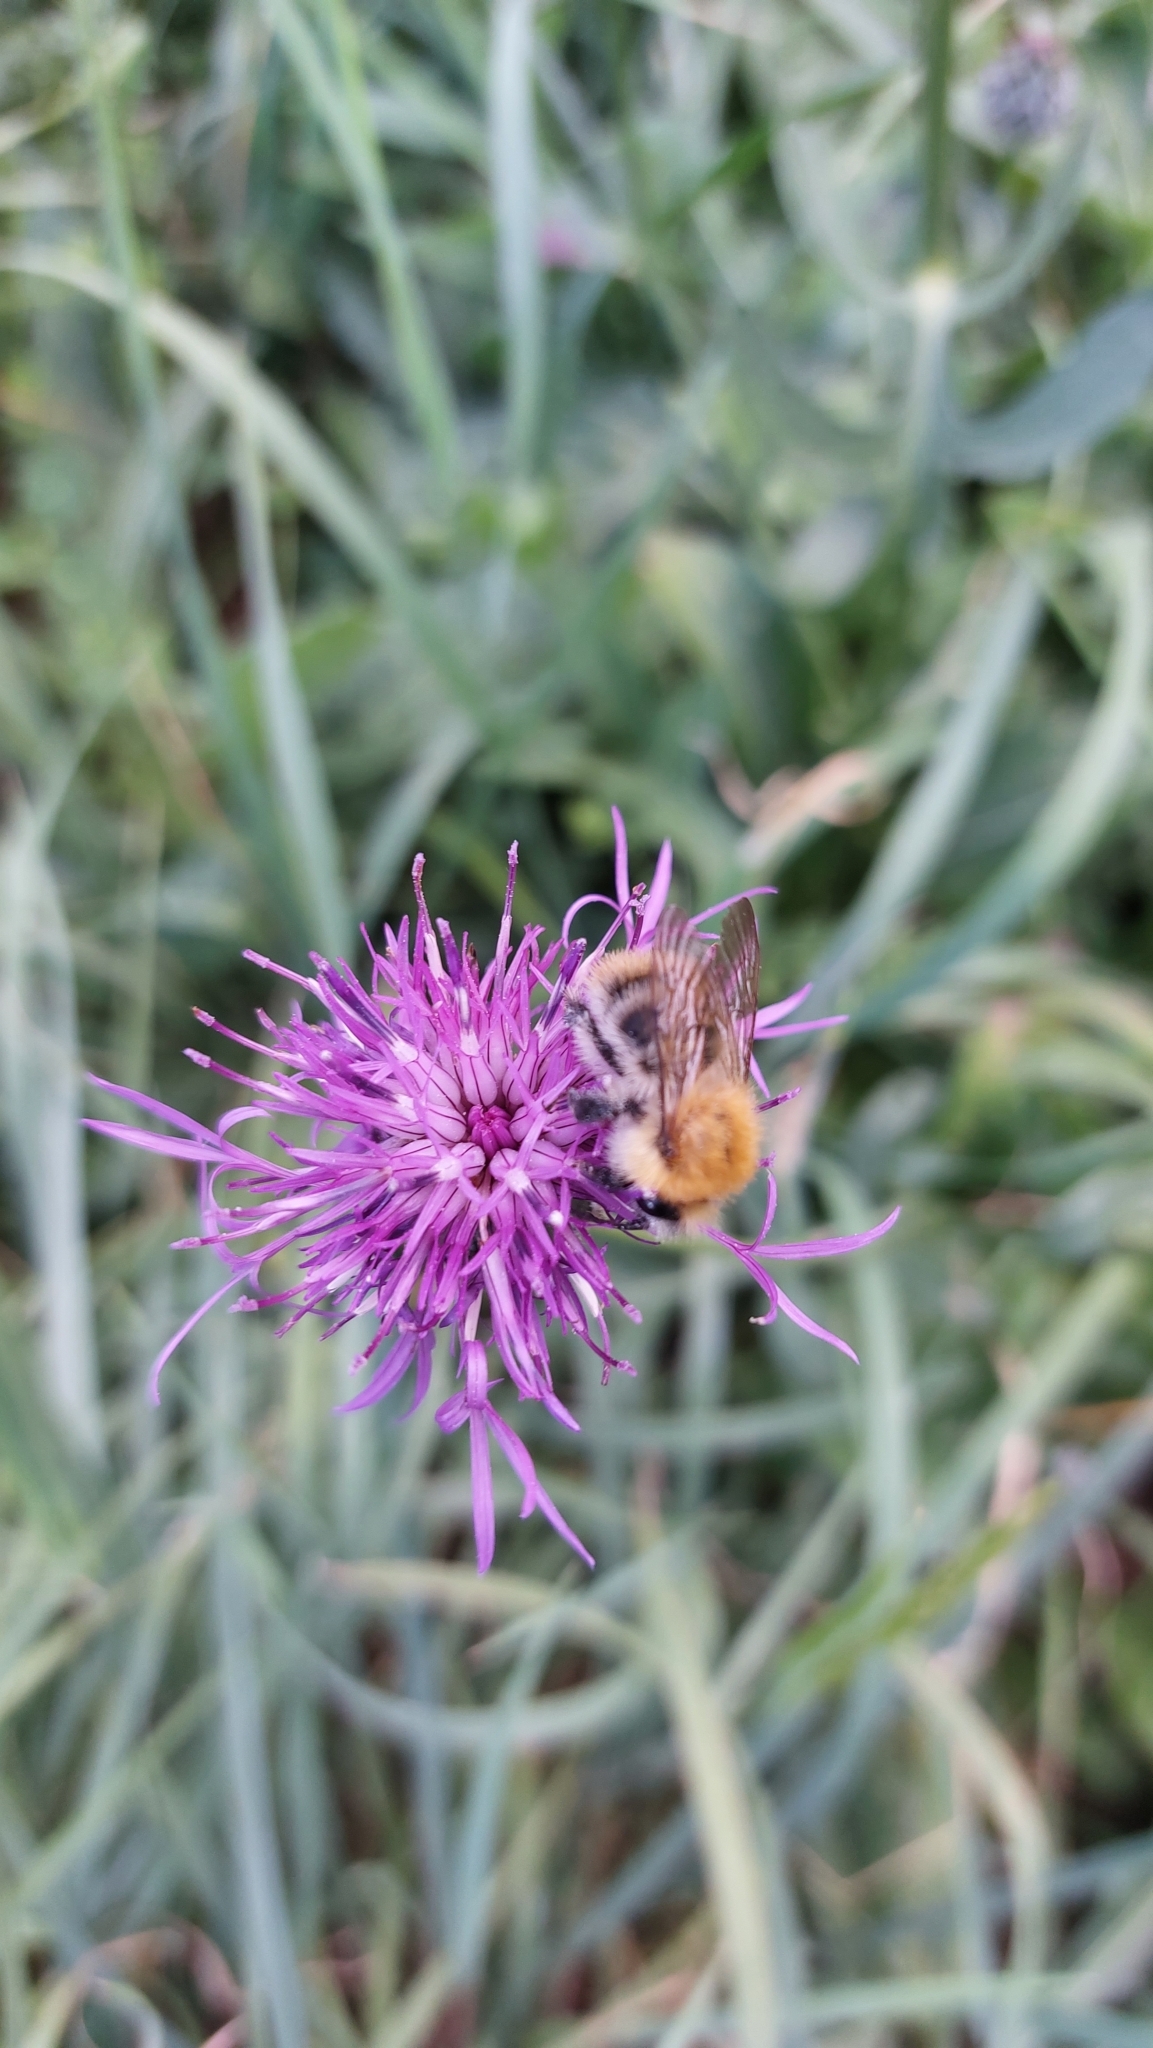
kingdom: Animalia
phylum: Arthropoda
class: Insecta
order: Hymenoptera
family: Apidae
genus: Bombus
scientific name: Bombus pascuorum
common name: Common carder bee
